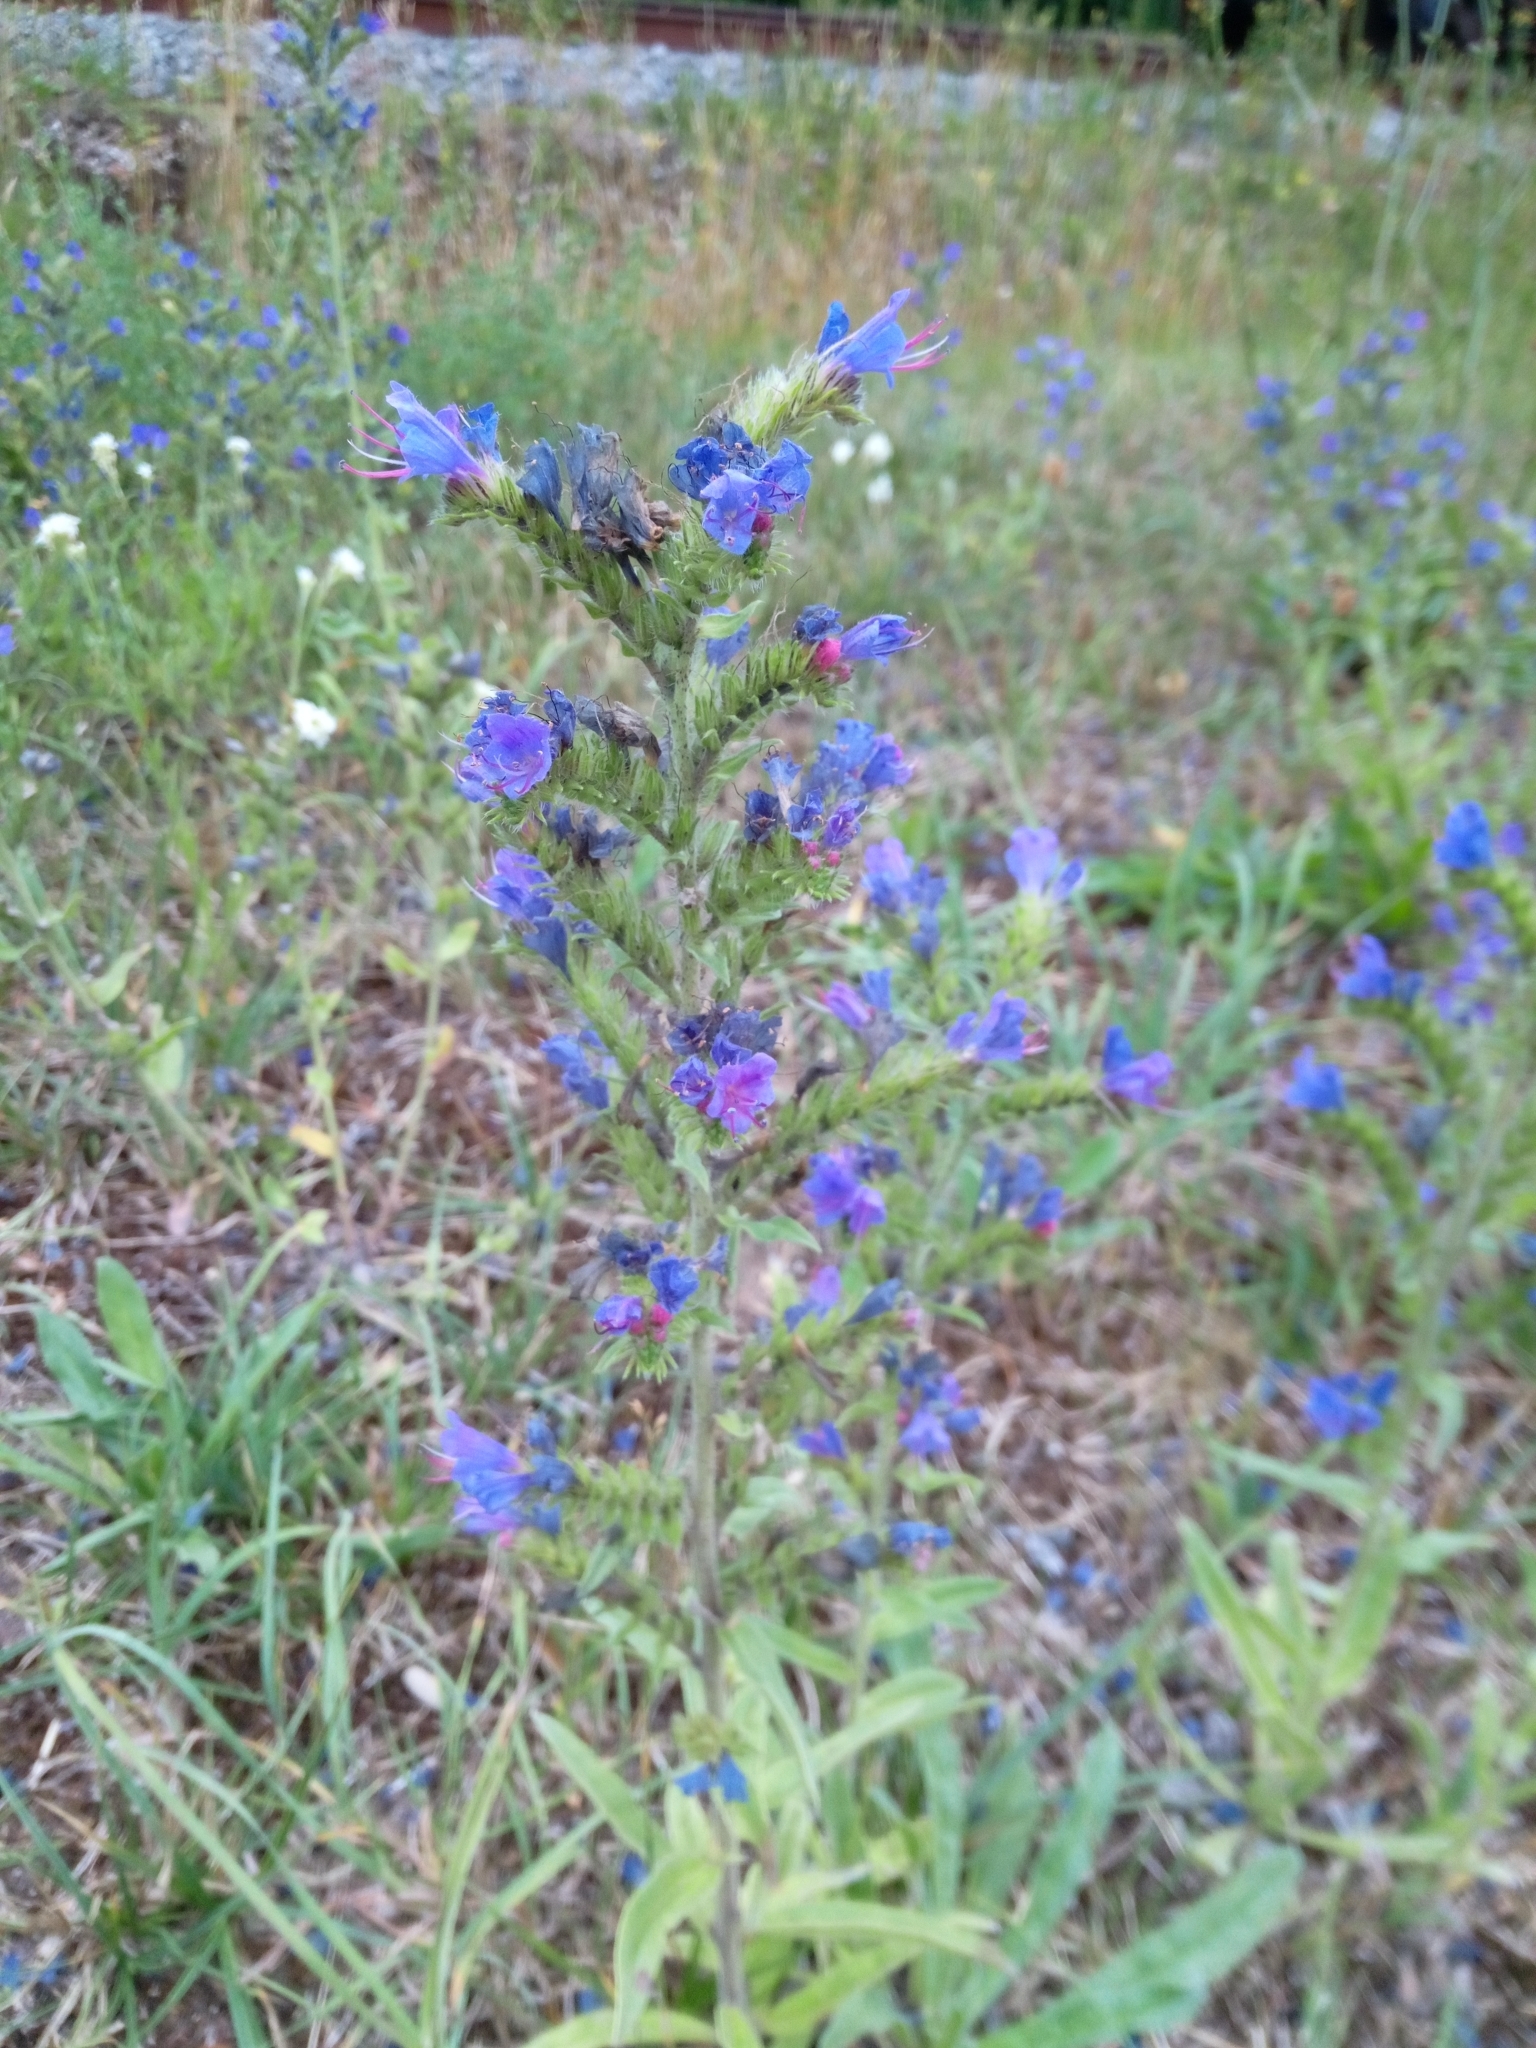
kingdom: Plantae
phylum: Tracheophyta
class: Magnoliopsida
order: Boraginales
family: Boraginaceae
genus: Echium
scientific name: Echium vulgare
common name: Common viper's bugloss
